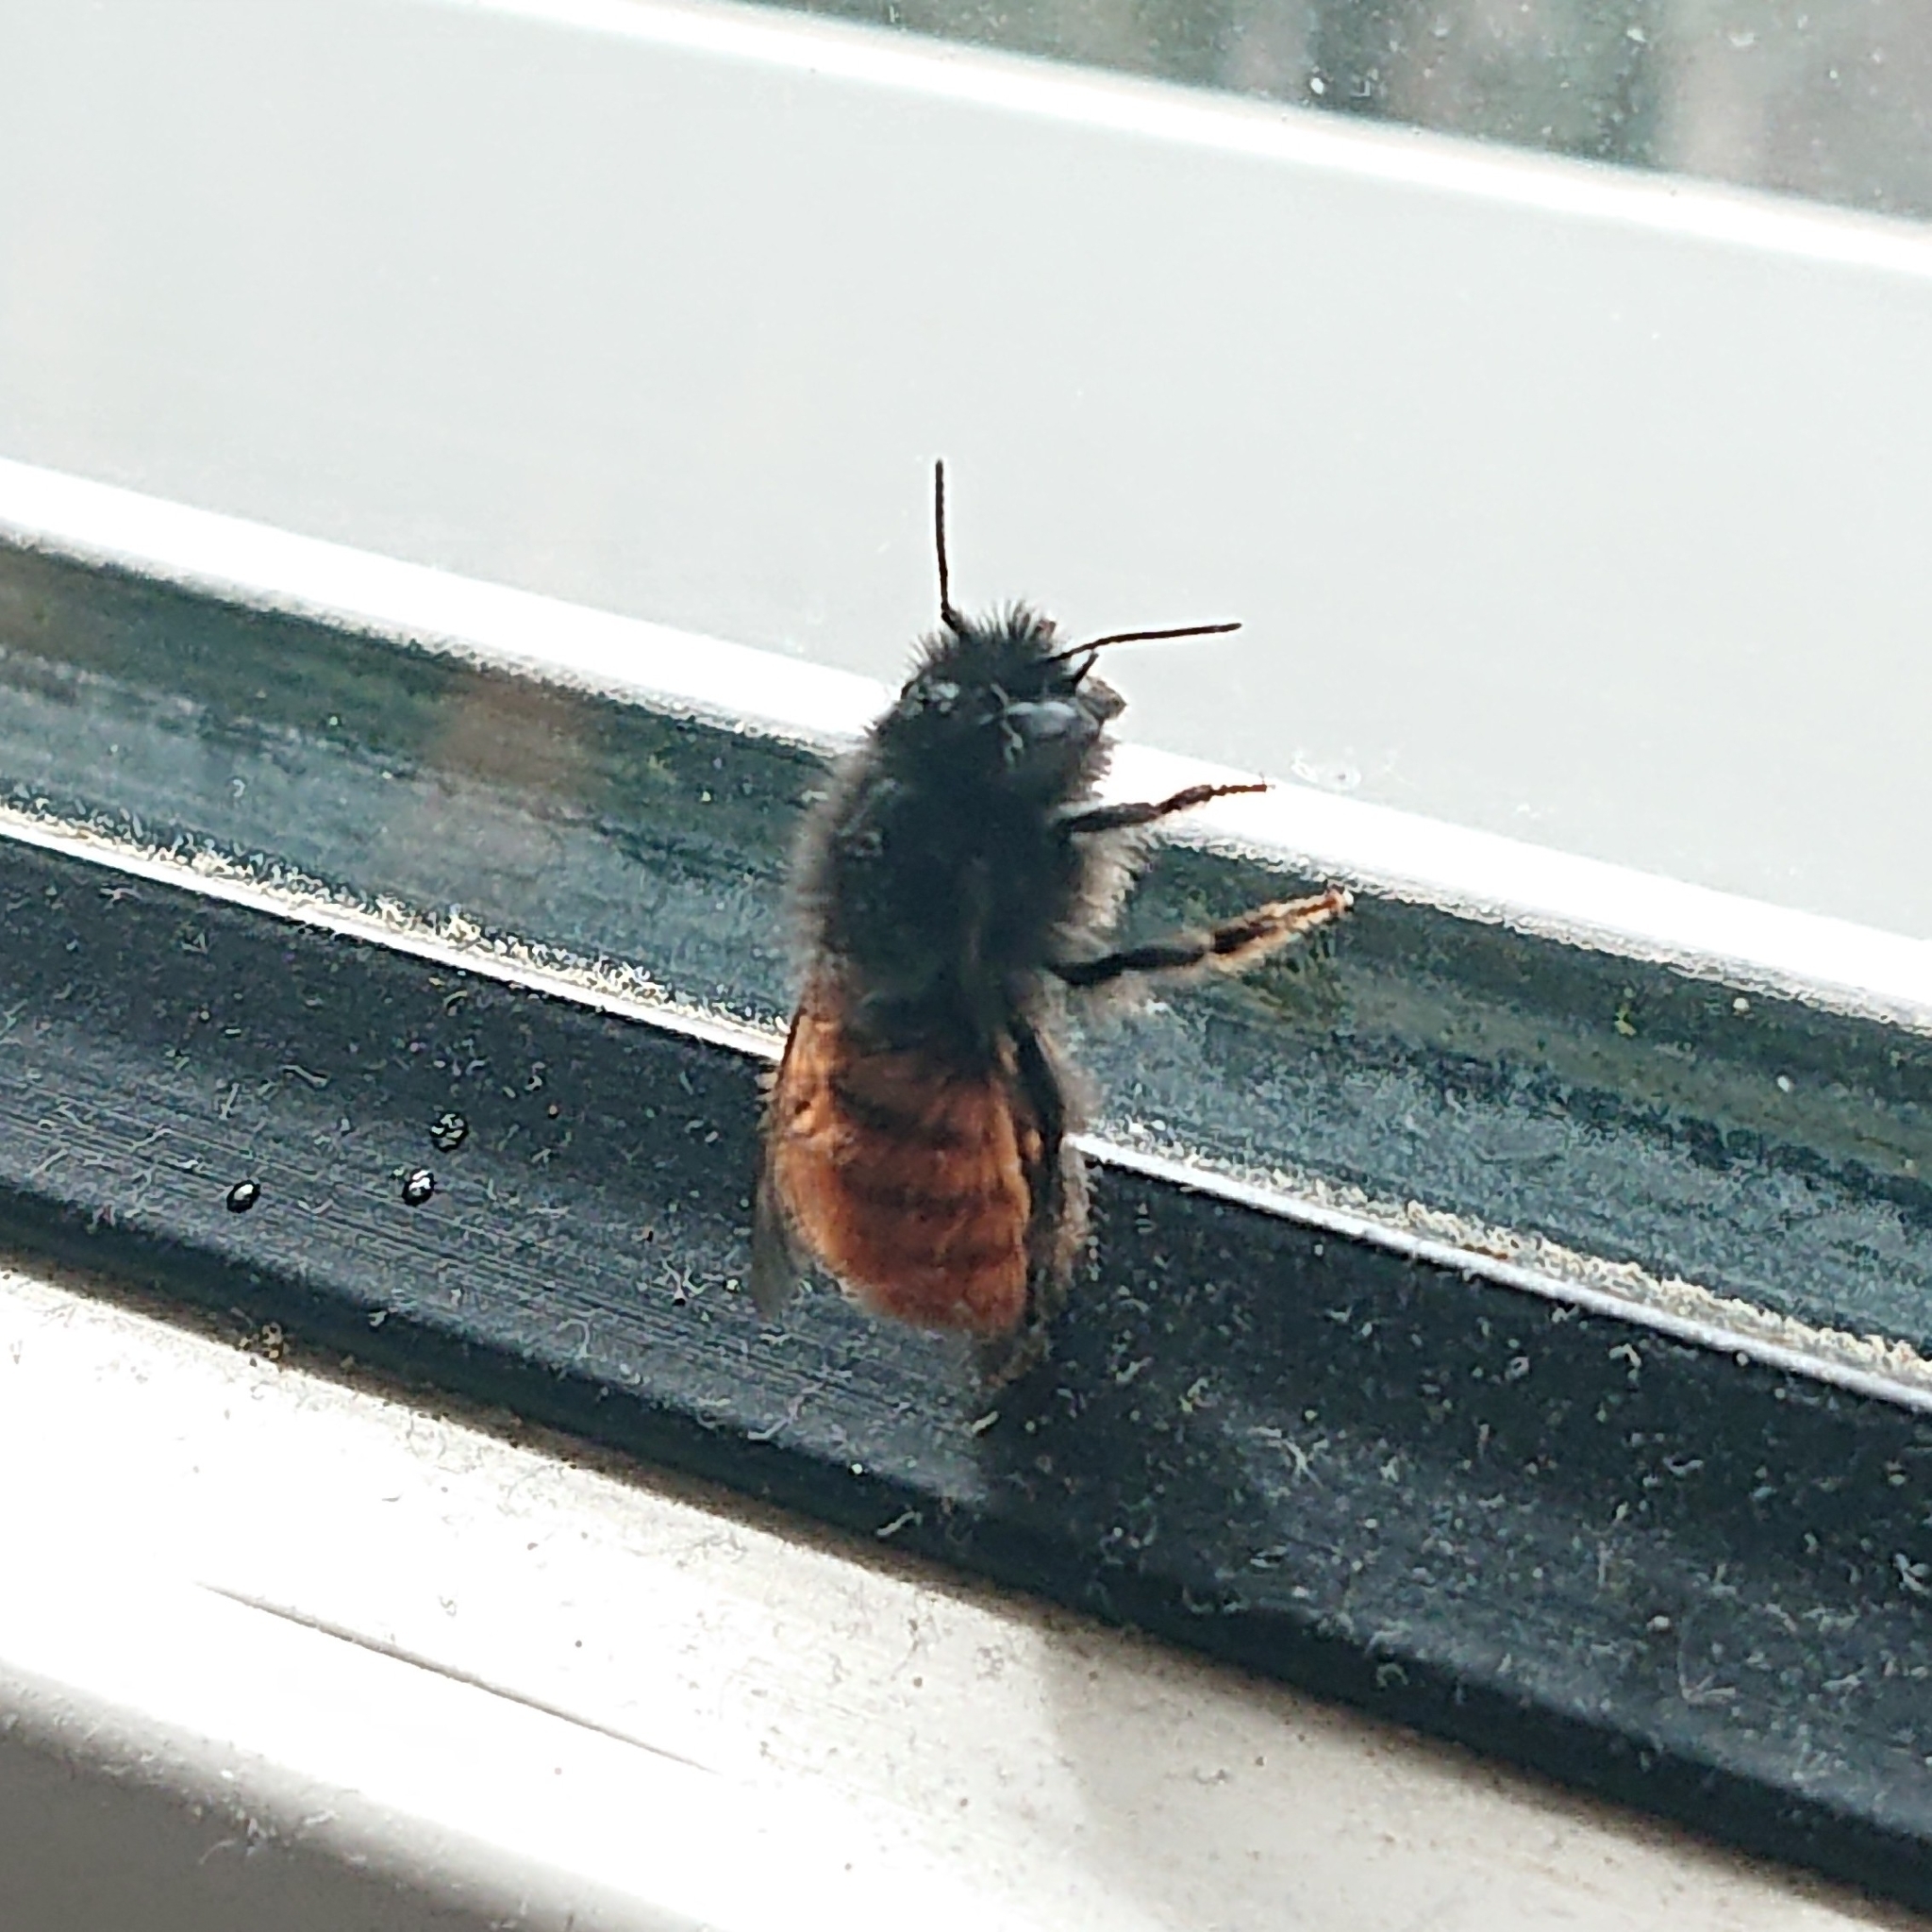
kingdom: Animalia
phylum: Arthropoda
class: Insecta
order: Hymenoptera
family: Megachilidae
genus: Osmia
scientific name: Osmia cornuta
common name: Mason bee
